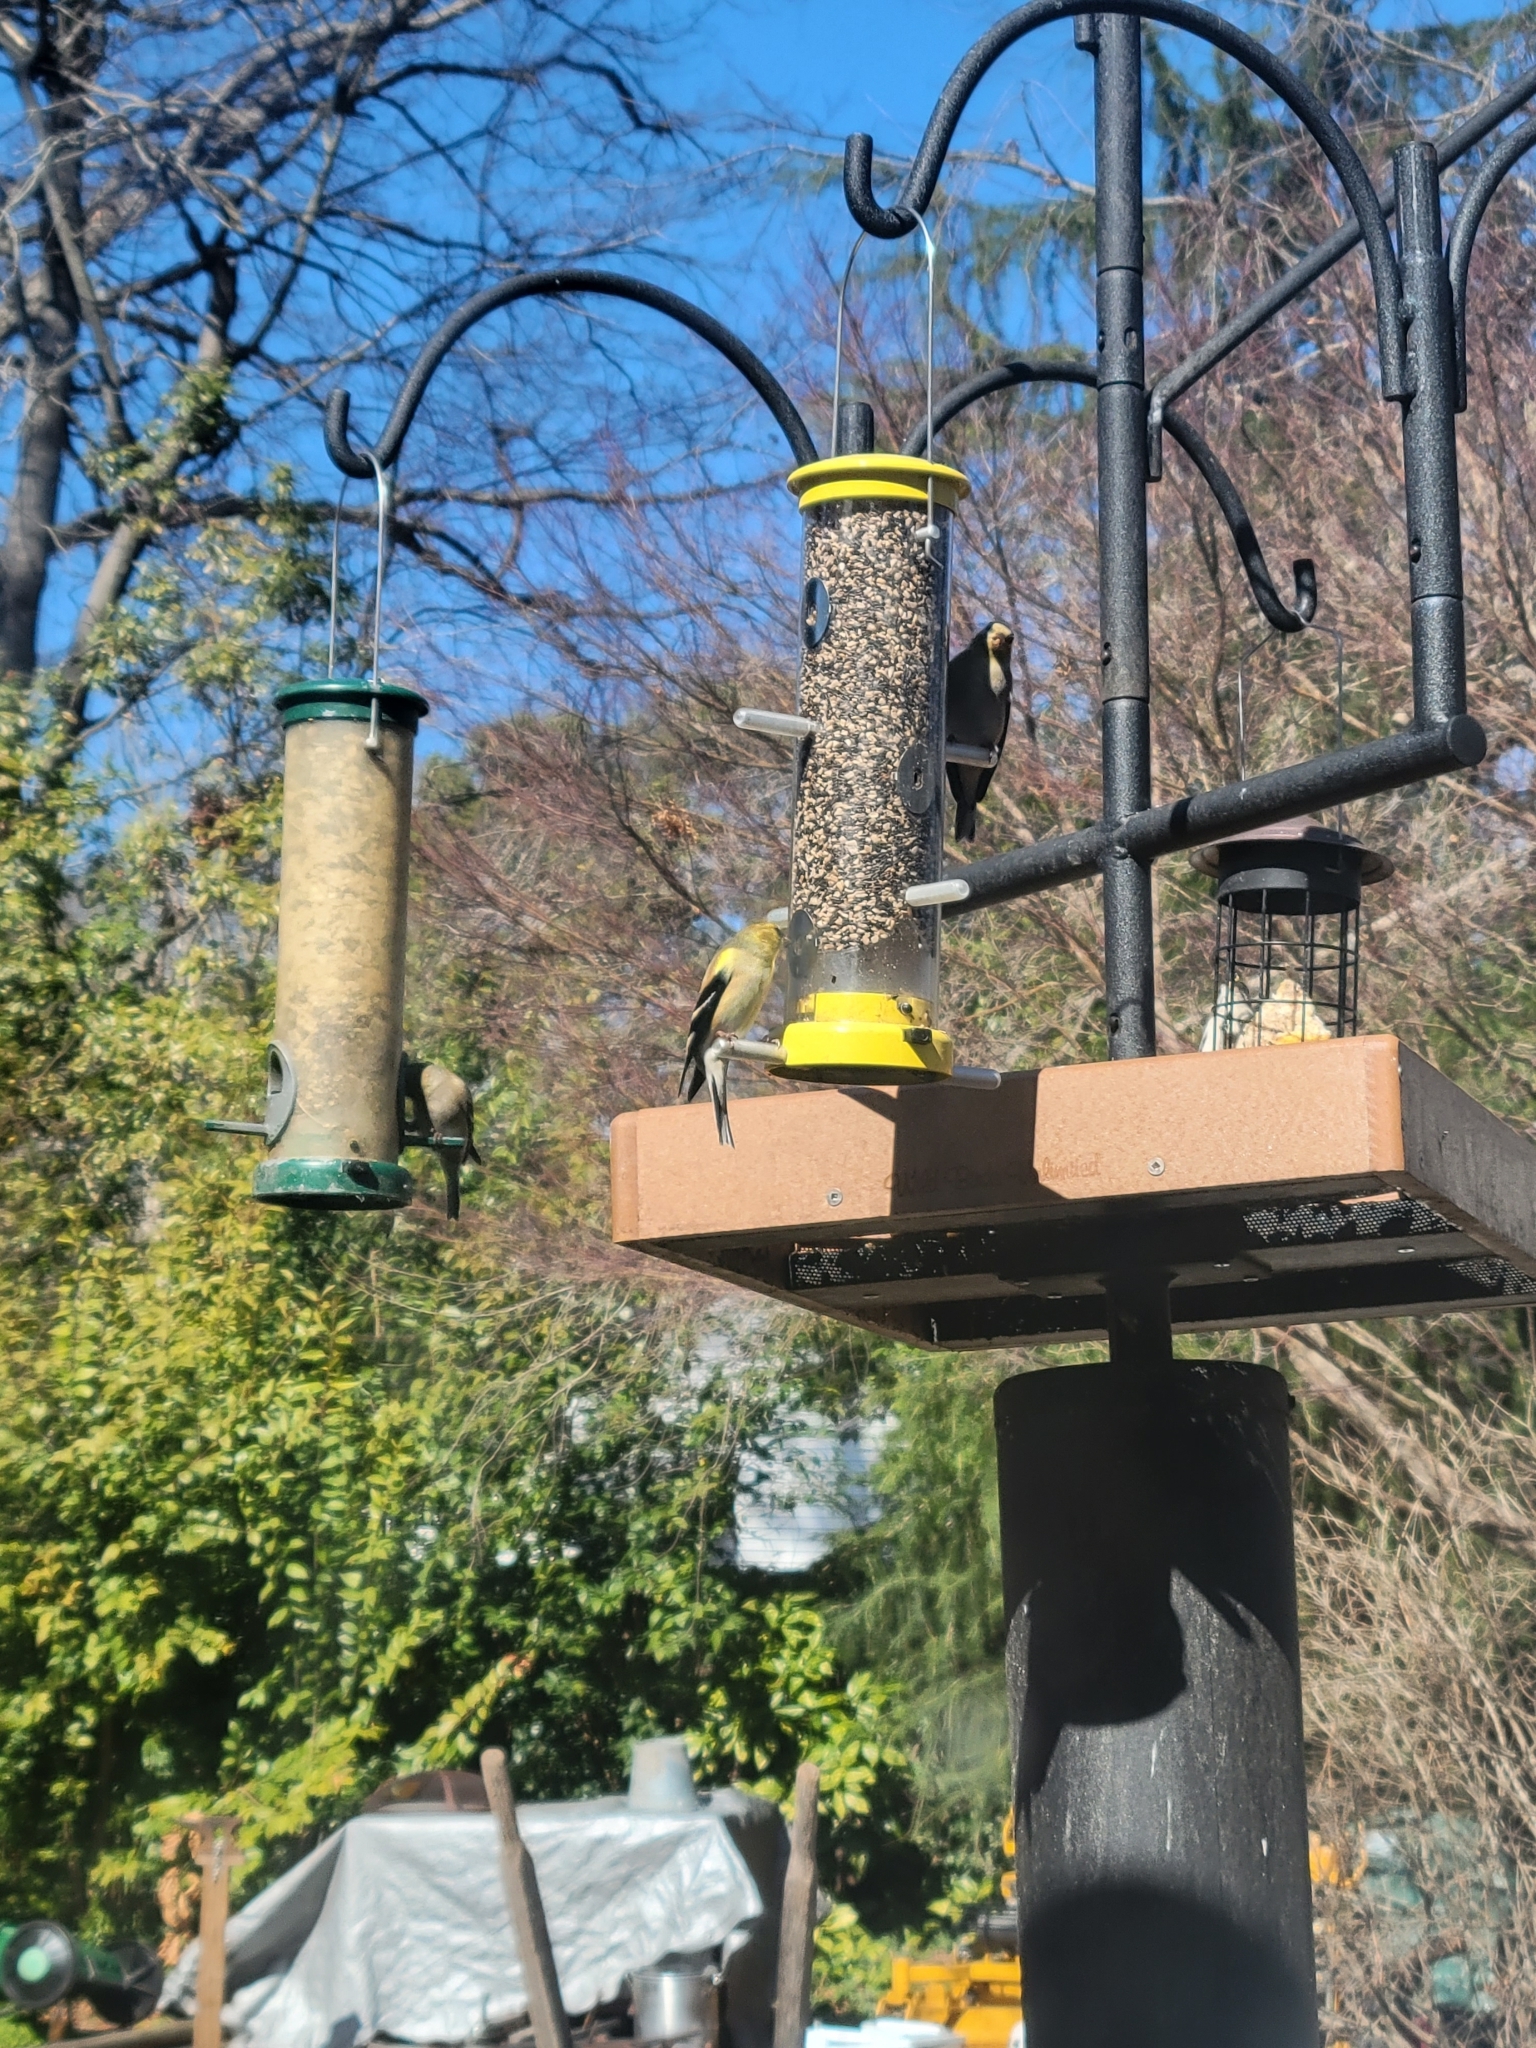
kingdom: Animalia
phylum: Chordata
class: Aves
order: Passeriformes
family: Fringillidae
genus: Spinus
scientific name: Spinus tristis
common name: American goldfinch
